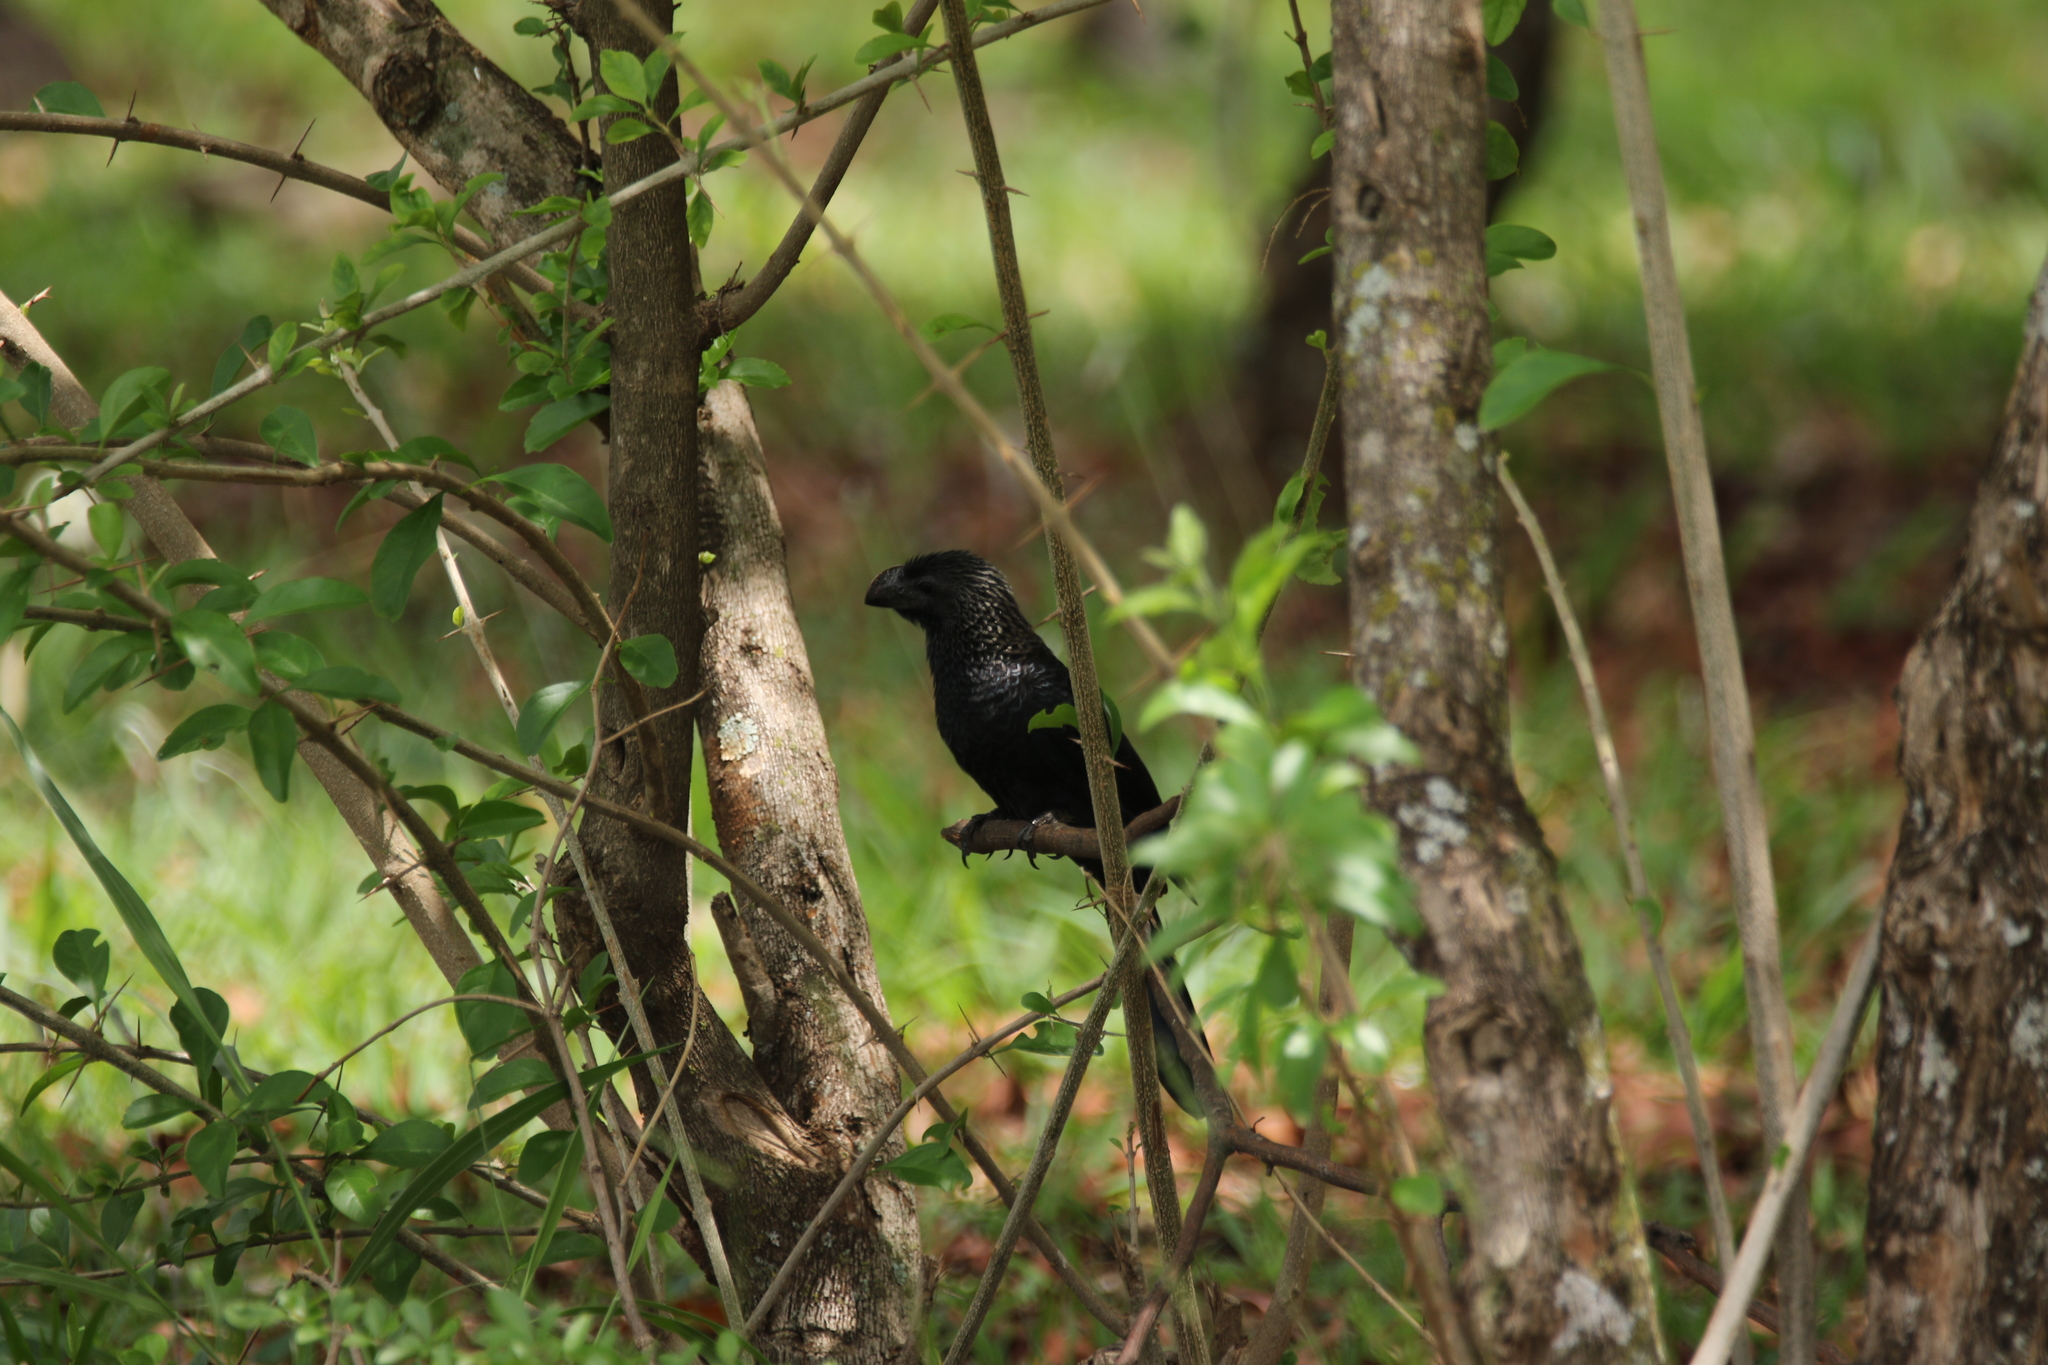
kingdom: Animalia
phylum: Chordata
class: Aves
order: Cuculiformes
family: Cuculidae
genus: Crotophaga
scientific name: Crotophaga ani
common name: Smooth-billed ani
